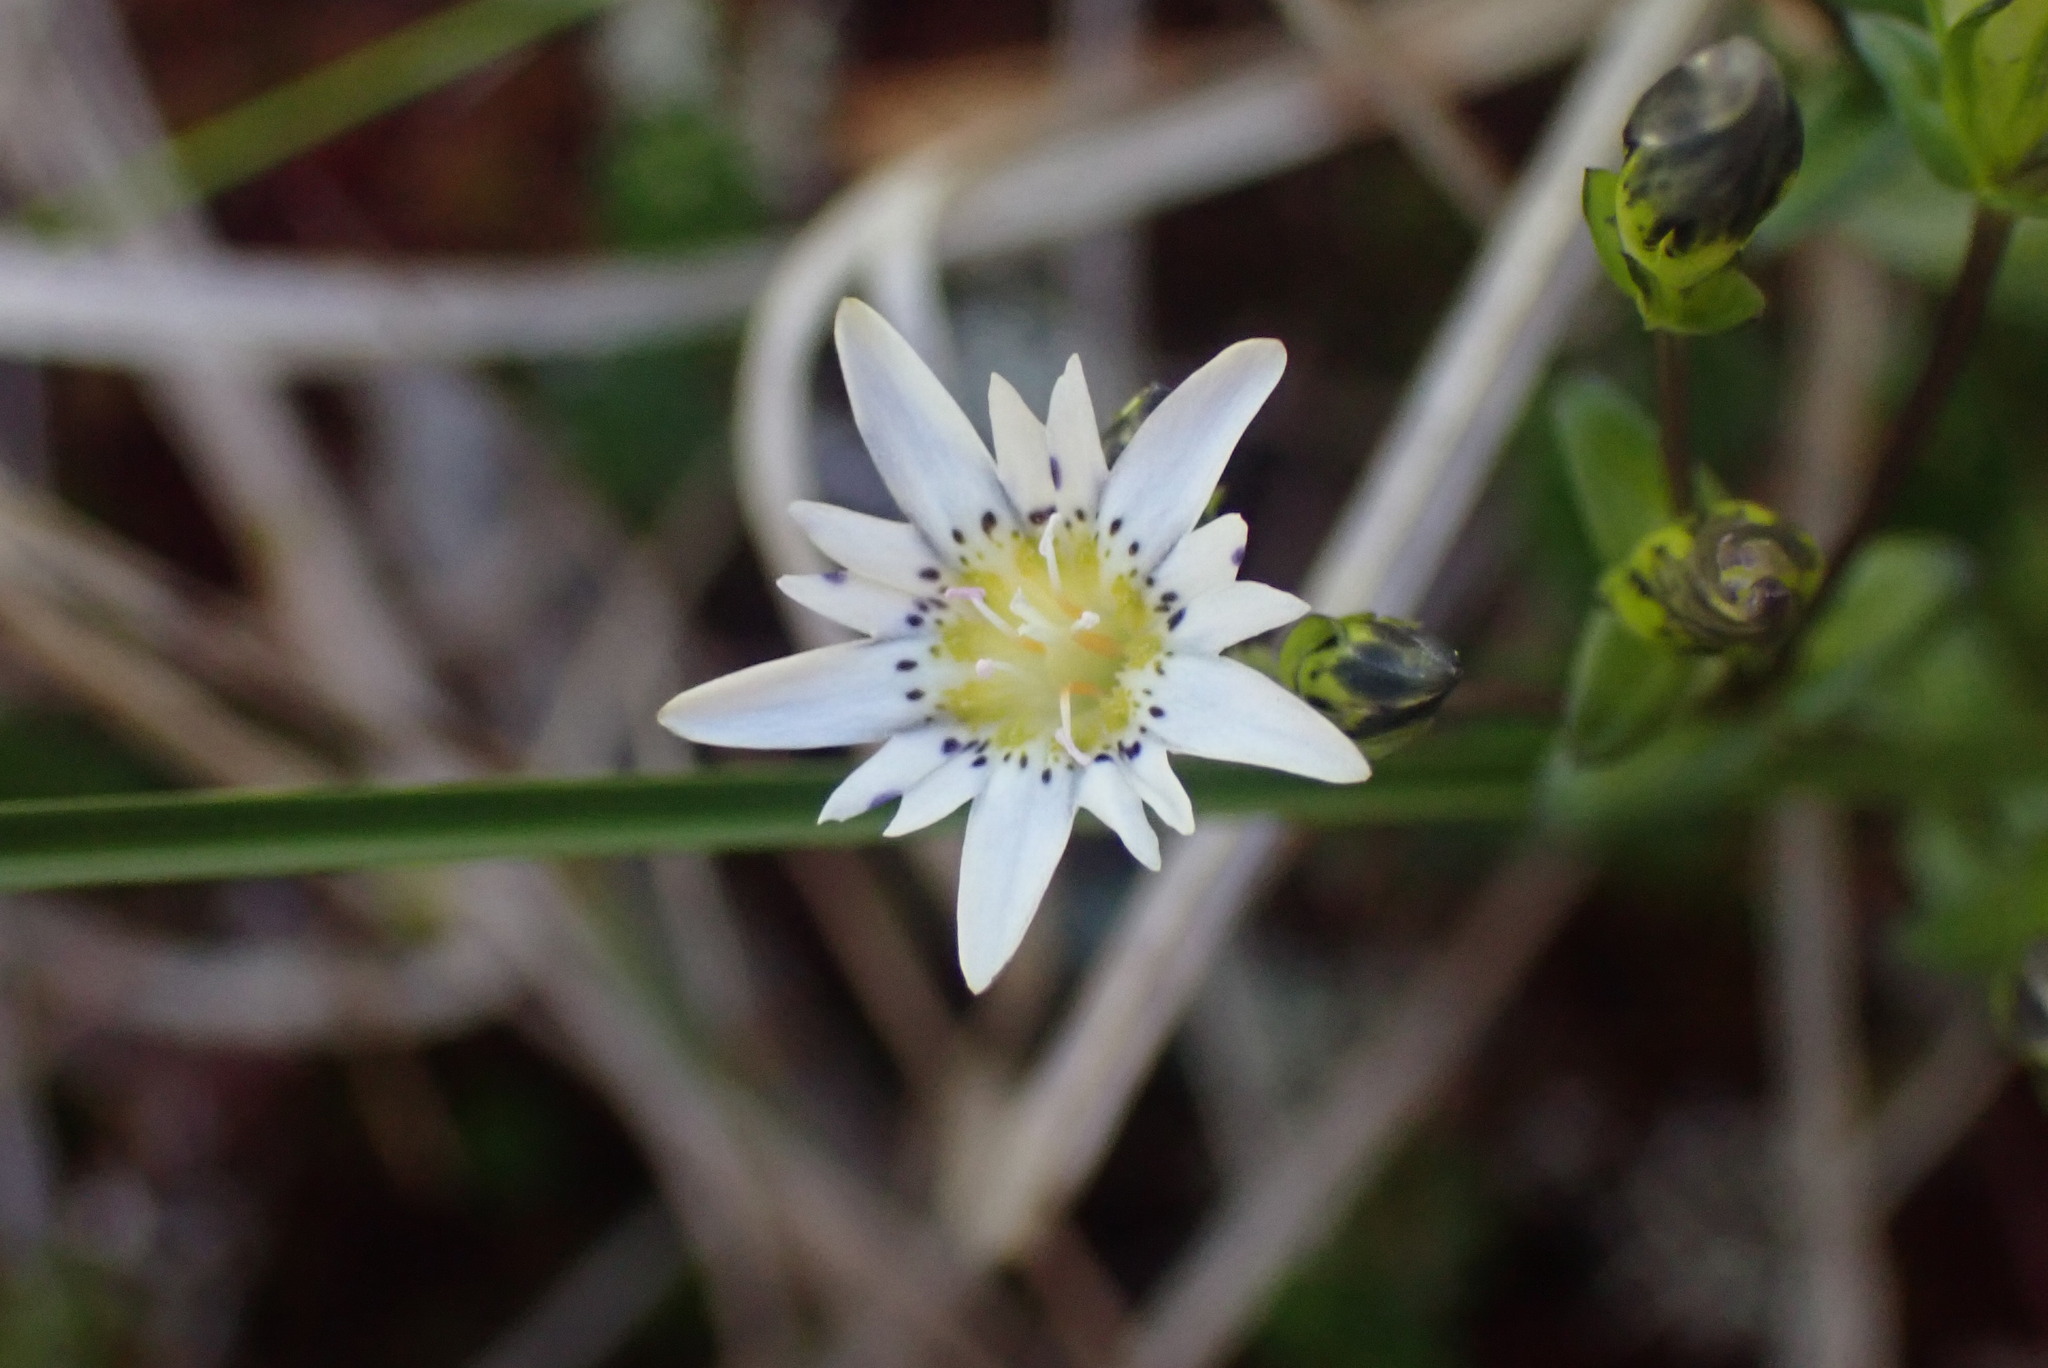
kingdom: Plantae
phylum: Tracheophyta
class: Magnoliopsida
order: Gentianales
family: Gentianaceae
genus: Gentiana
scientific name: Gentiana douglasiana
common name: Swamp gentian
